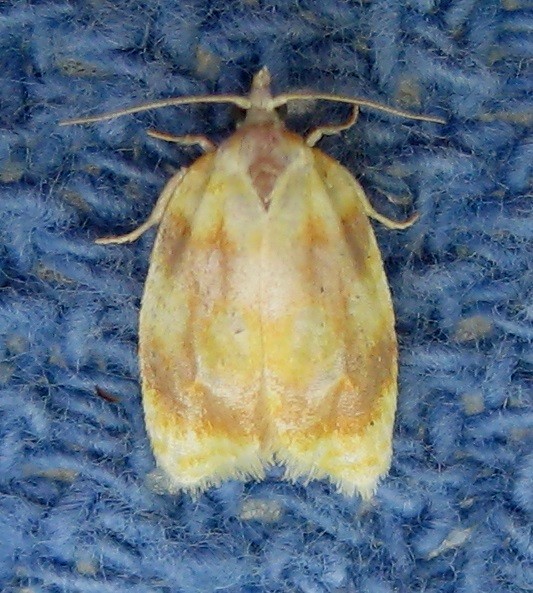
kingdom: Animalia
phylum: Arthropoda
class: Insecta
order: Lepidoptera
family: Tortricidae
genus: Acleris
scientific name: Acleris semipurpurana
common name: Oak leaftier moth
